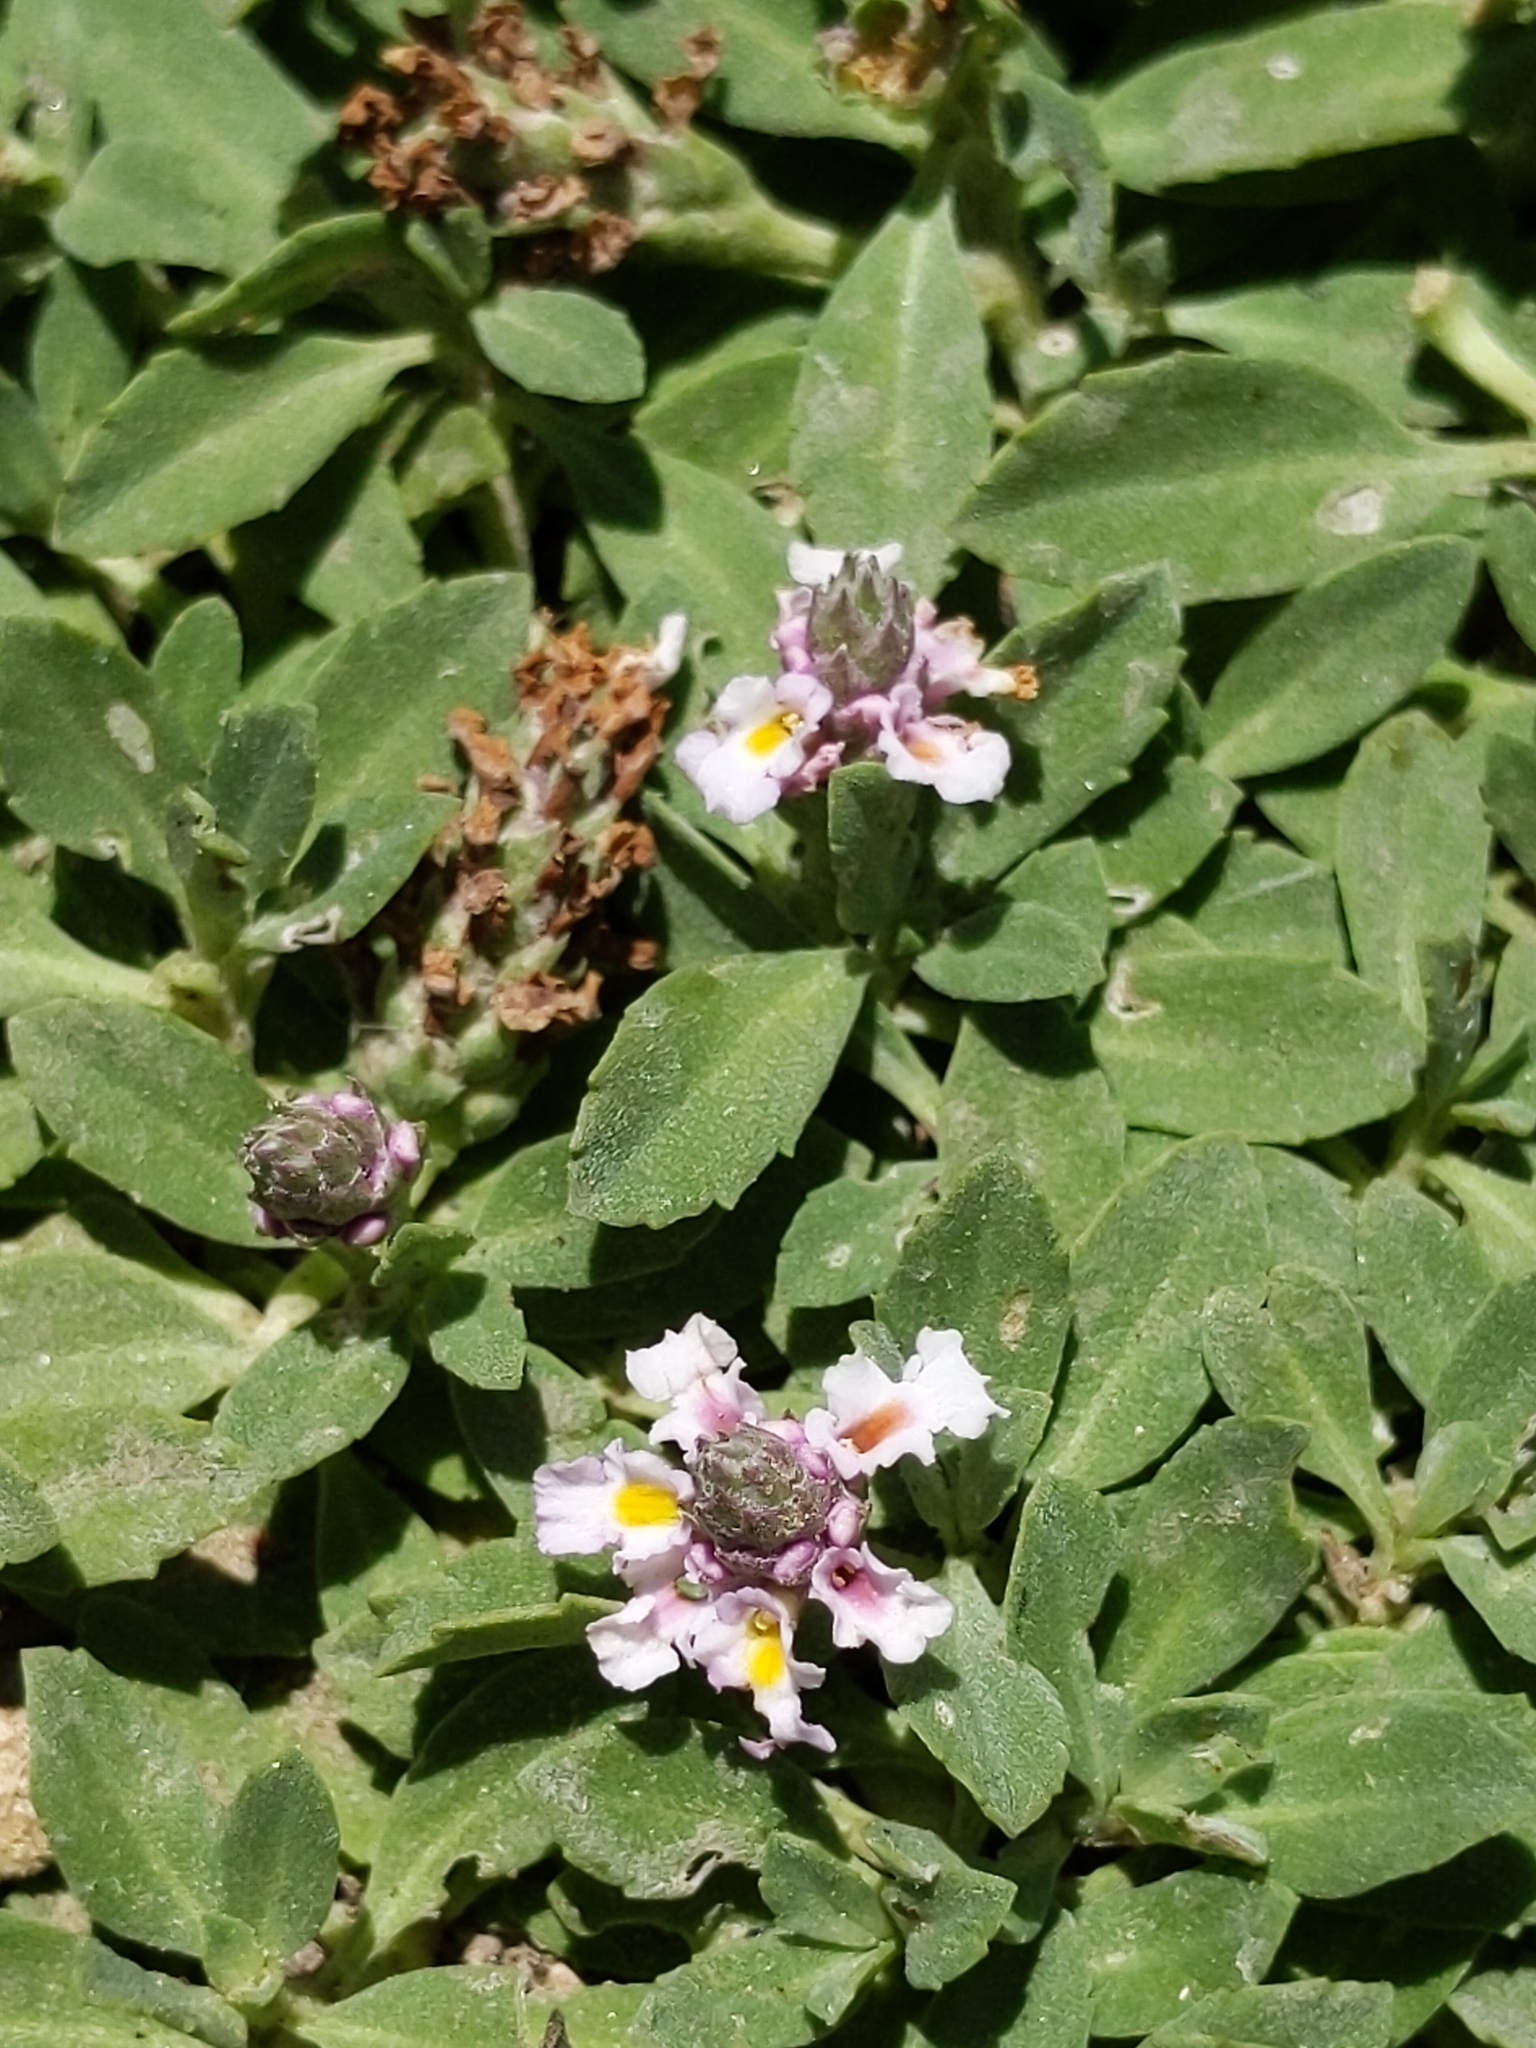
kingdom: Plantae
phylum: Tracheophyta
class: Magnoliopsida
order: Lamiales
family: Verbenaceae
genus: Phyla
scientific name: Phyla nodiflora
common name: Frogfruit
